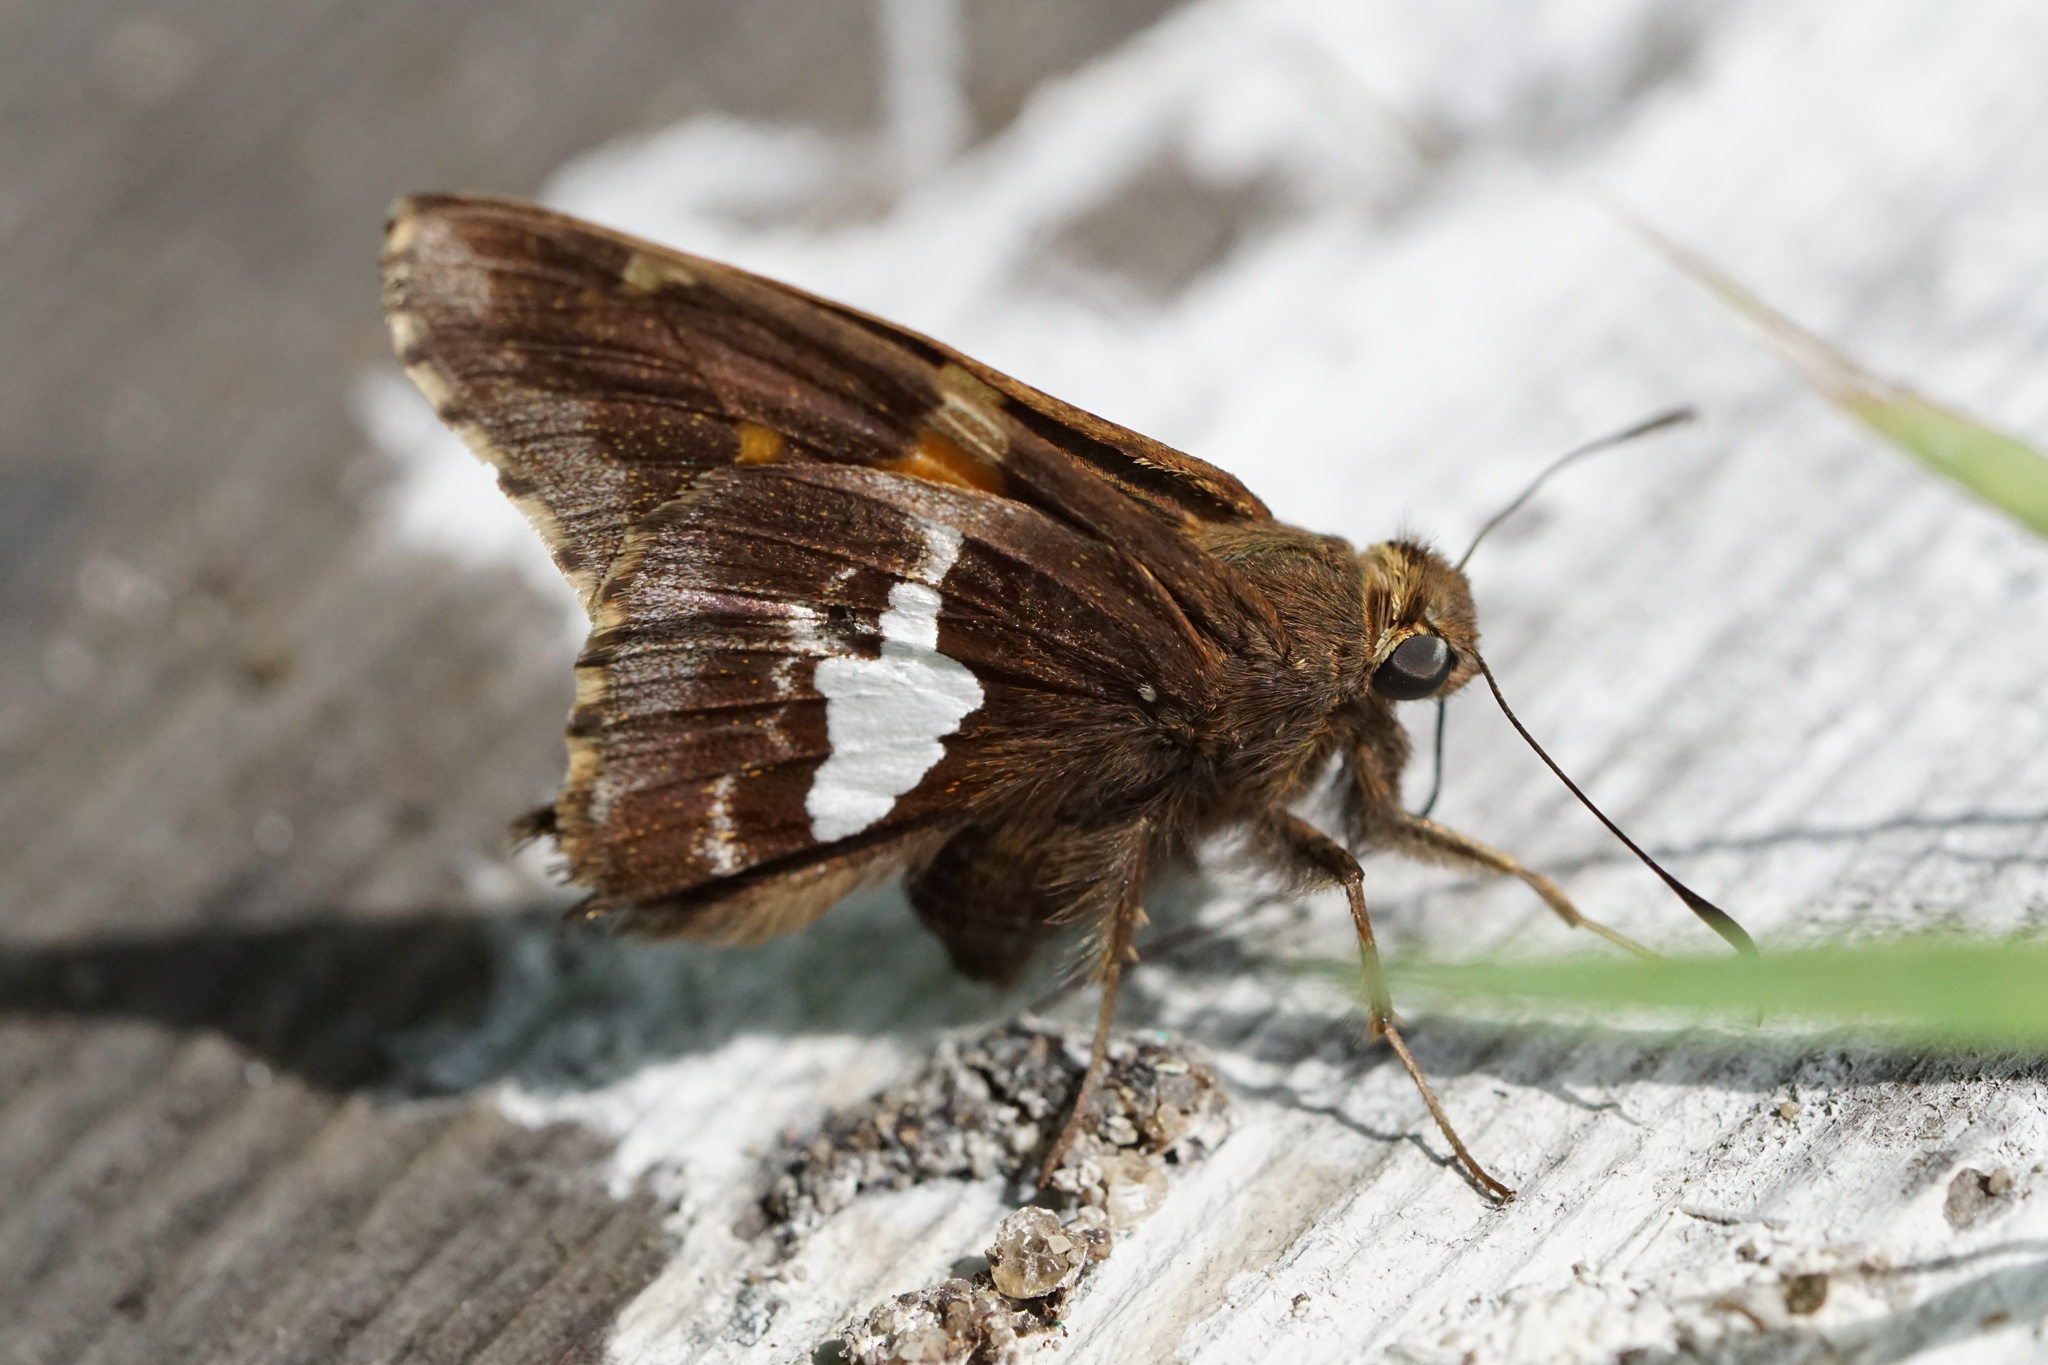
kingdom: Animalia
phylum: Arthropoda
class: Insecta
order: Lepidoptera
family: Hesperiidae
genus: Epargyreus
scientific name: Epargyreus clarus
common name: Silver-spotted skipper
